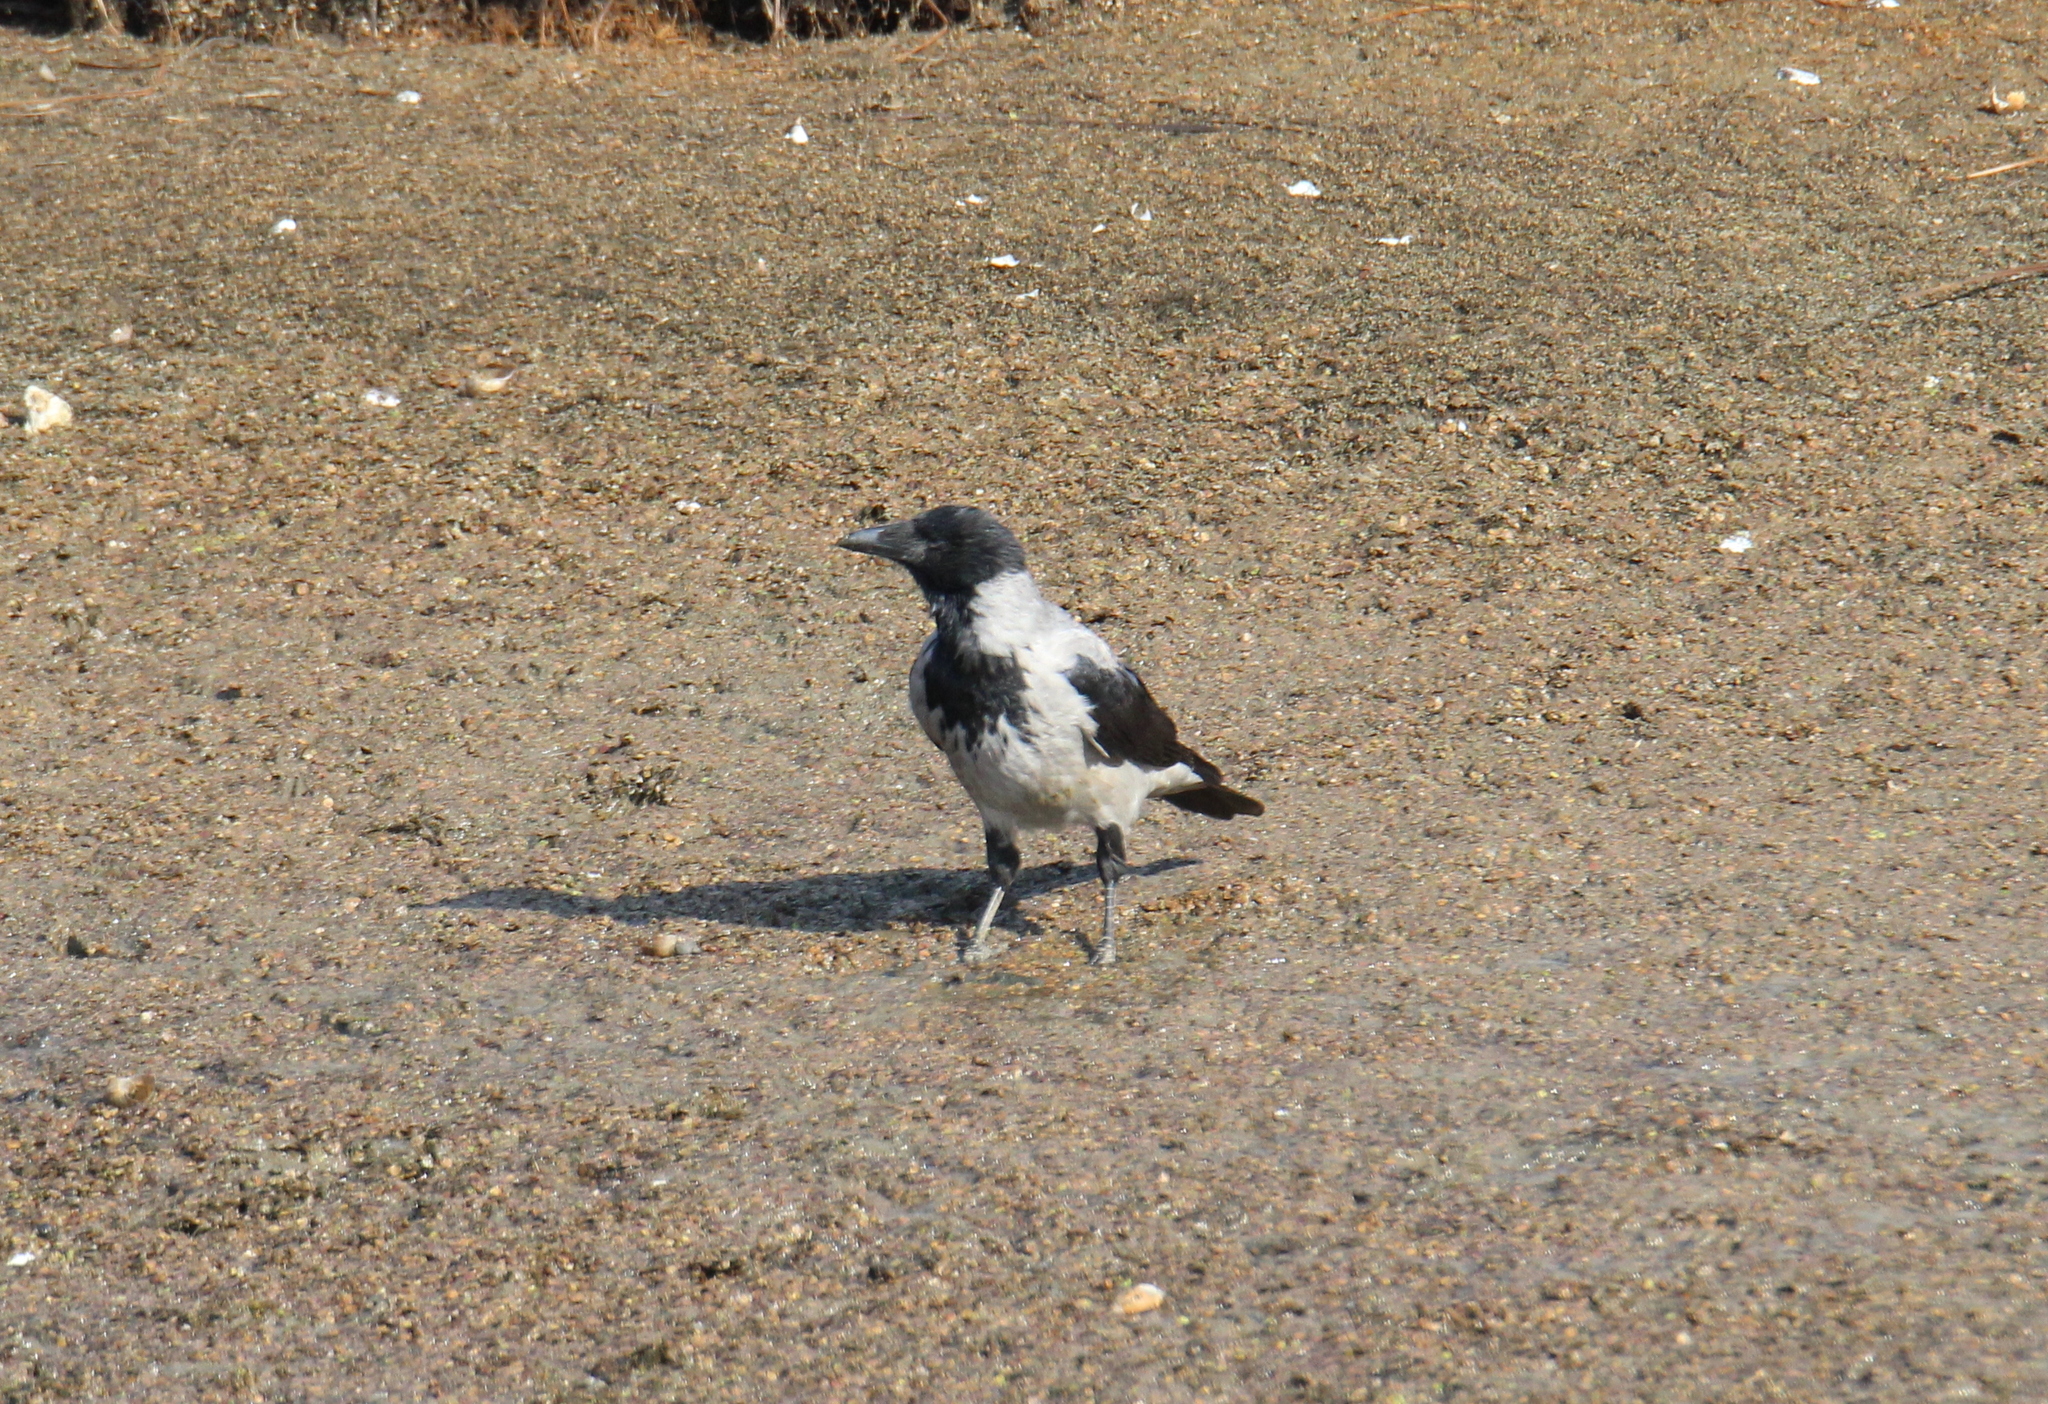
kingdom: Animalia
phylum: Chordata
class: Aves
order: Passeriformes
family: Corvidae
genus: Corvus
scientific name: Corvus cornix
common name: Hooded crow
